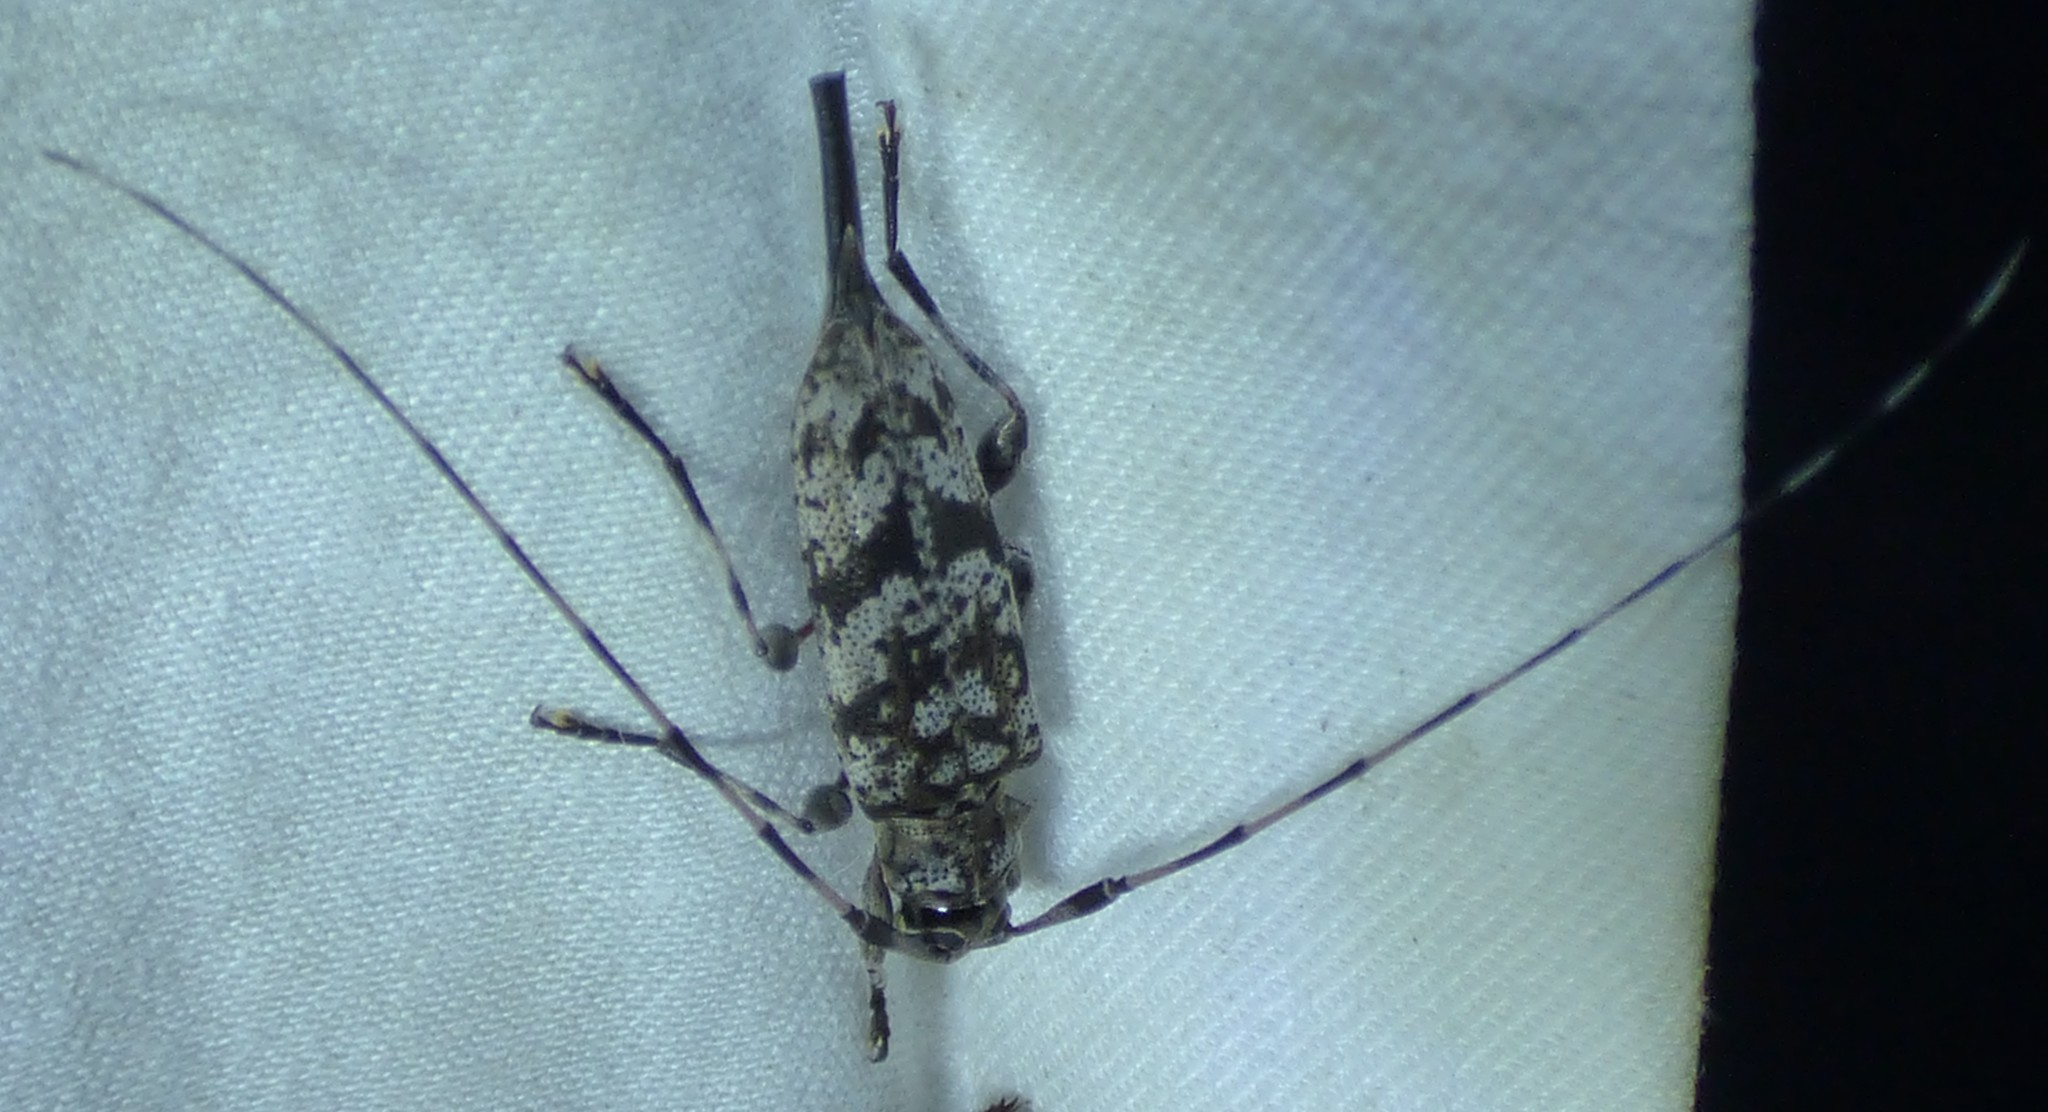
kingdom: Animalia
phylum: Arthropoda
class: Insecta
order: Coleoptera
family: Cerambycidae
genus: Acanthocinus
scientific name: Acanthocinus obsoletus
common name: Roundheaded borer
